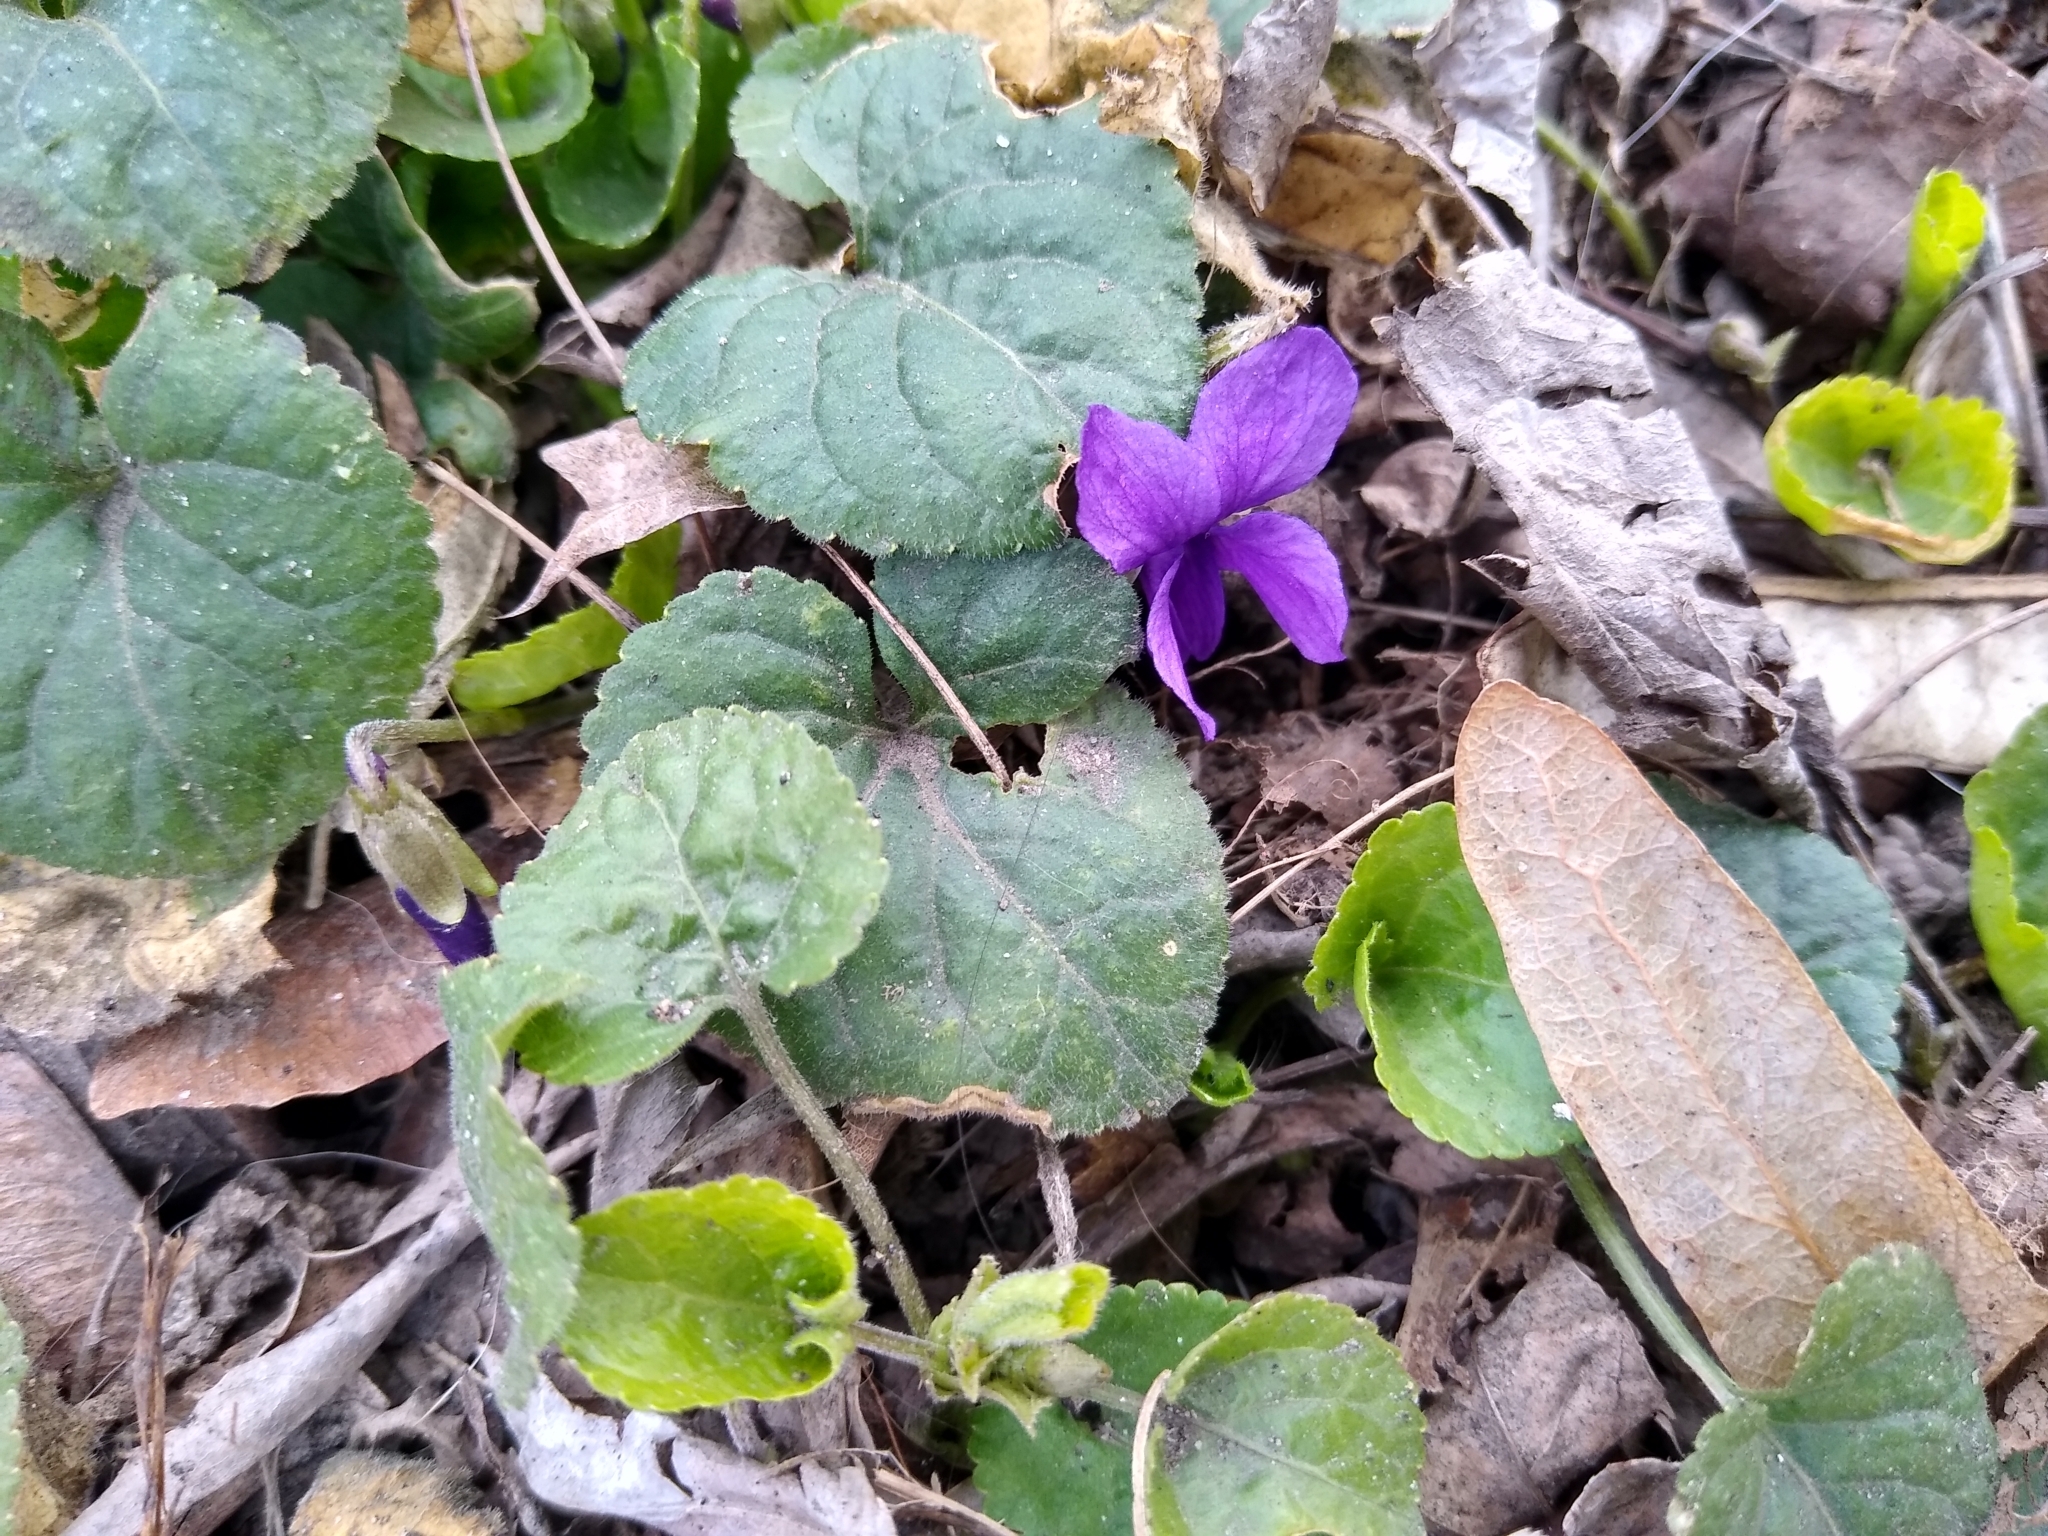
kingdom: Plantae
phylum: Tracheophyta
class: Magnoliopsida
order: Malpighiales
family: Violaceae
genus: Viola
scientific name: Viola odorata
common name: Sweet violet
